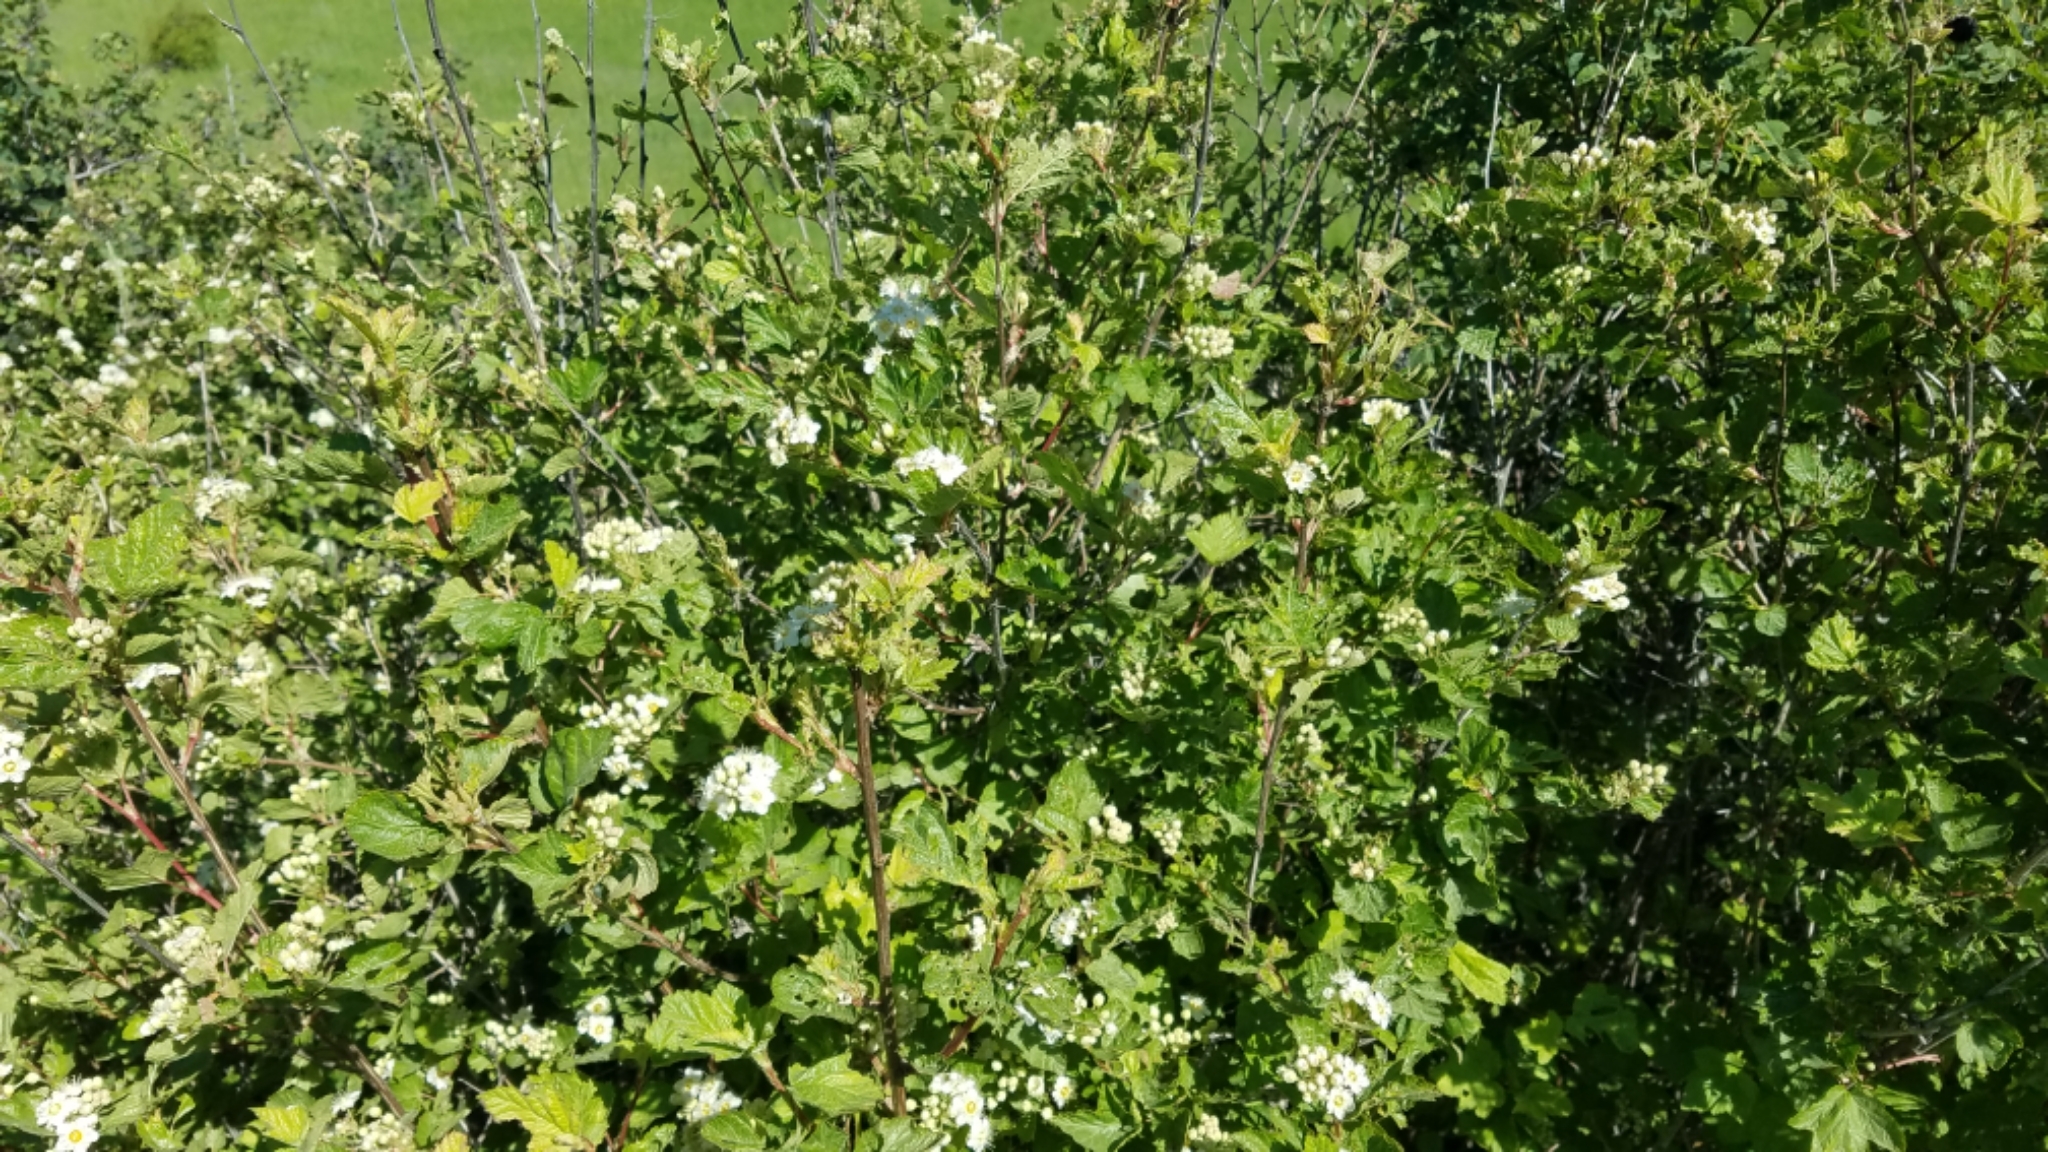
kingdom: Plantae
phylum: Tracheophyta
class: Magnoliopsida
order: Rosales
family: Rosaceae
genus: Physocarpus
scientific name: Physocarpus malvaceus
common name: Mallow ninebark
